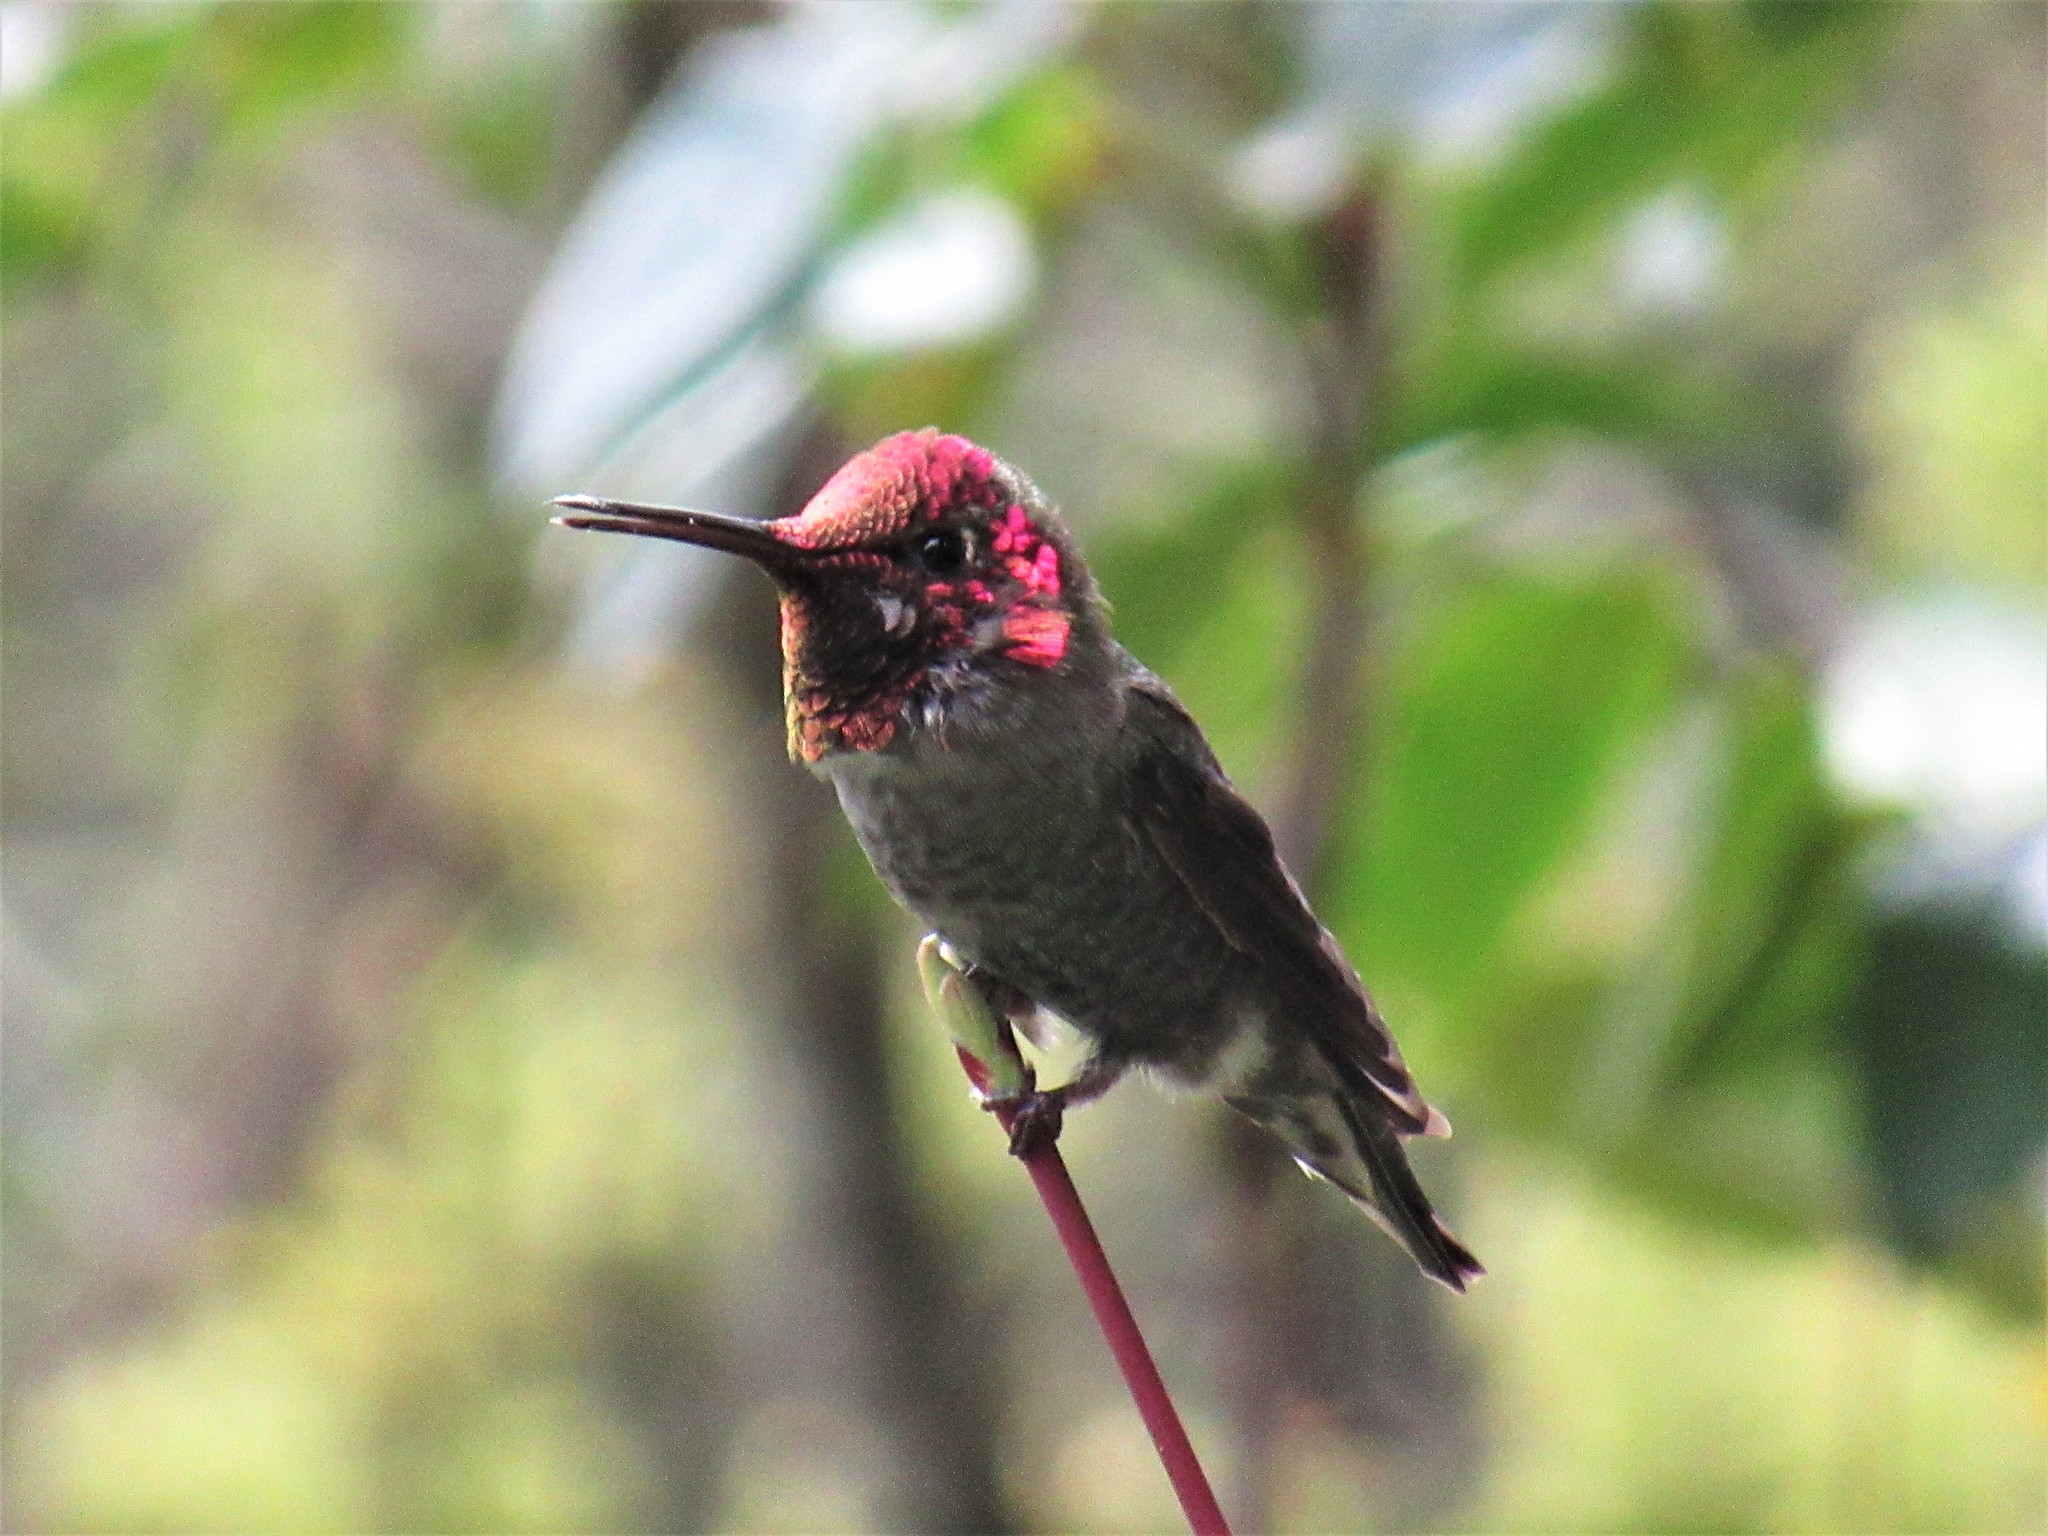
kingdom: Animalia
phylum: Chordata
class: Aves
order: Apodiformes
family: Trochilidae
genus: Calypte
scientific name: Calypte anna
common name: Anna's hummingbird
